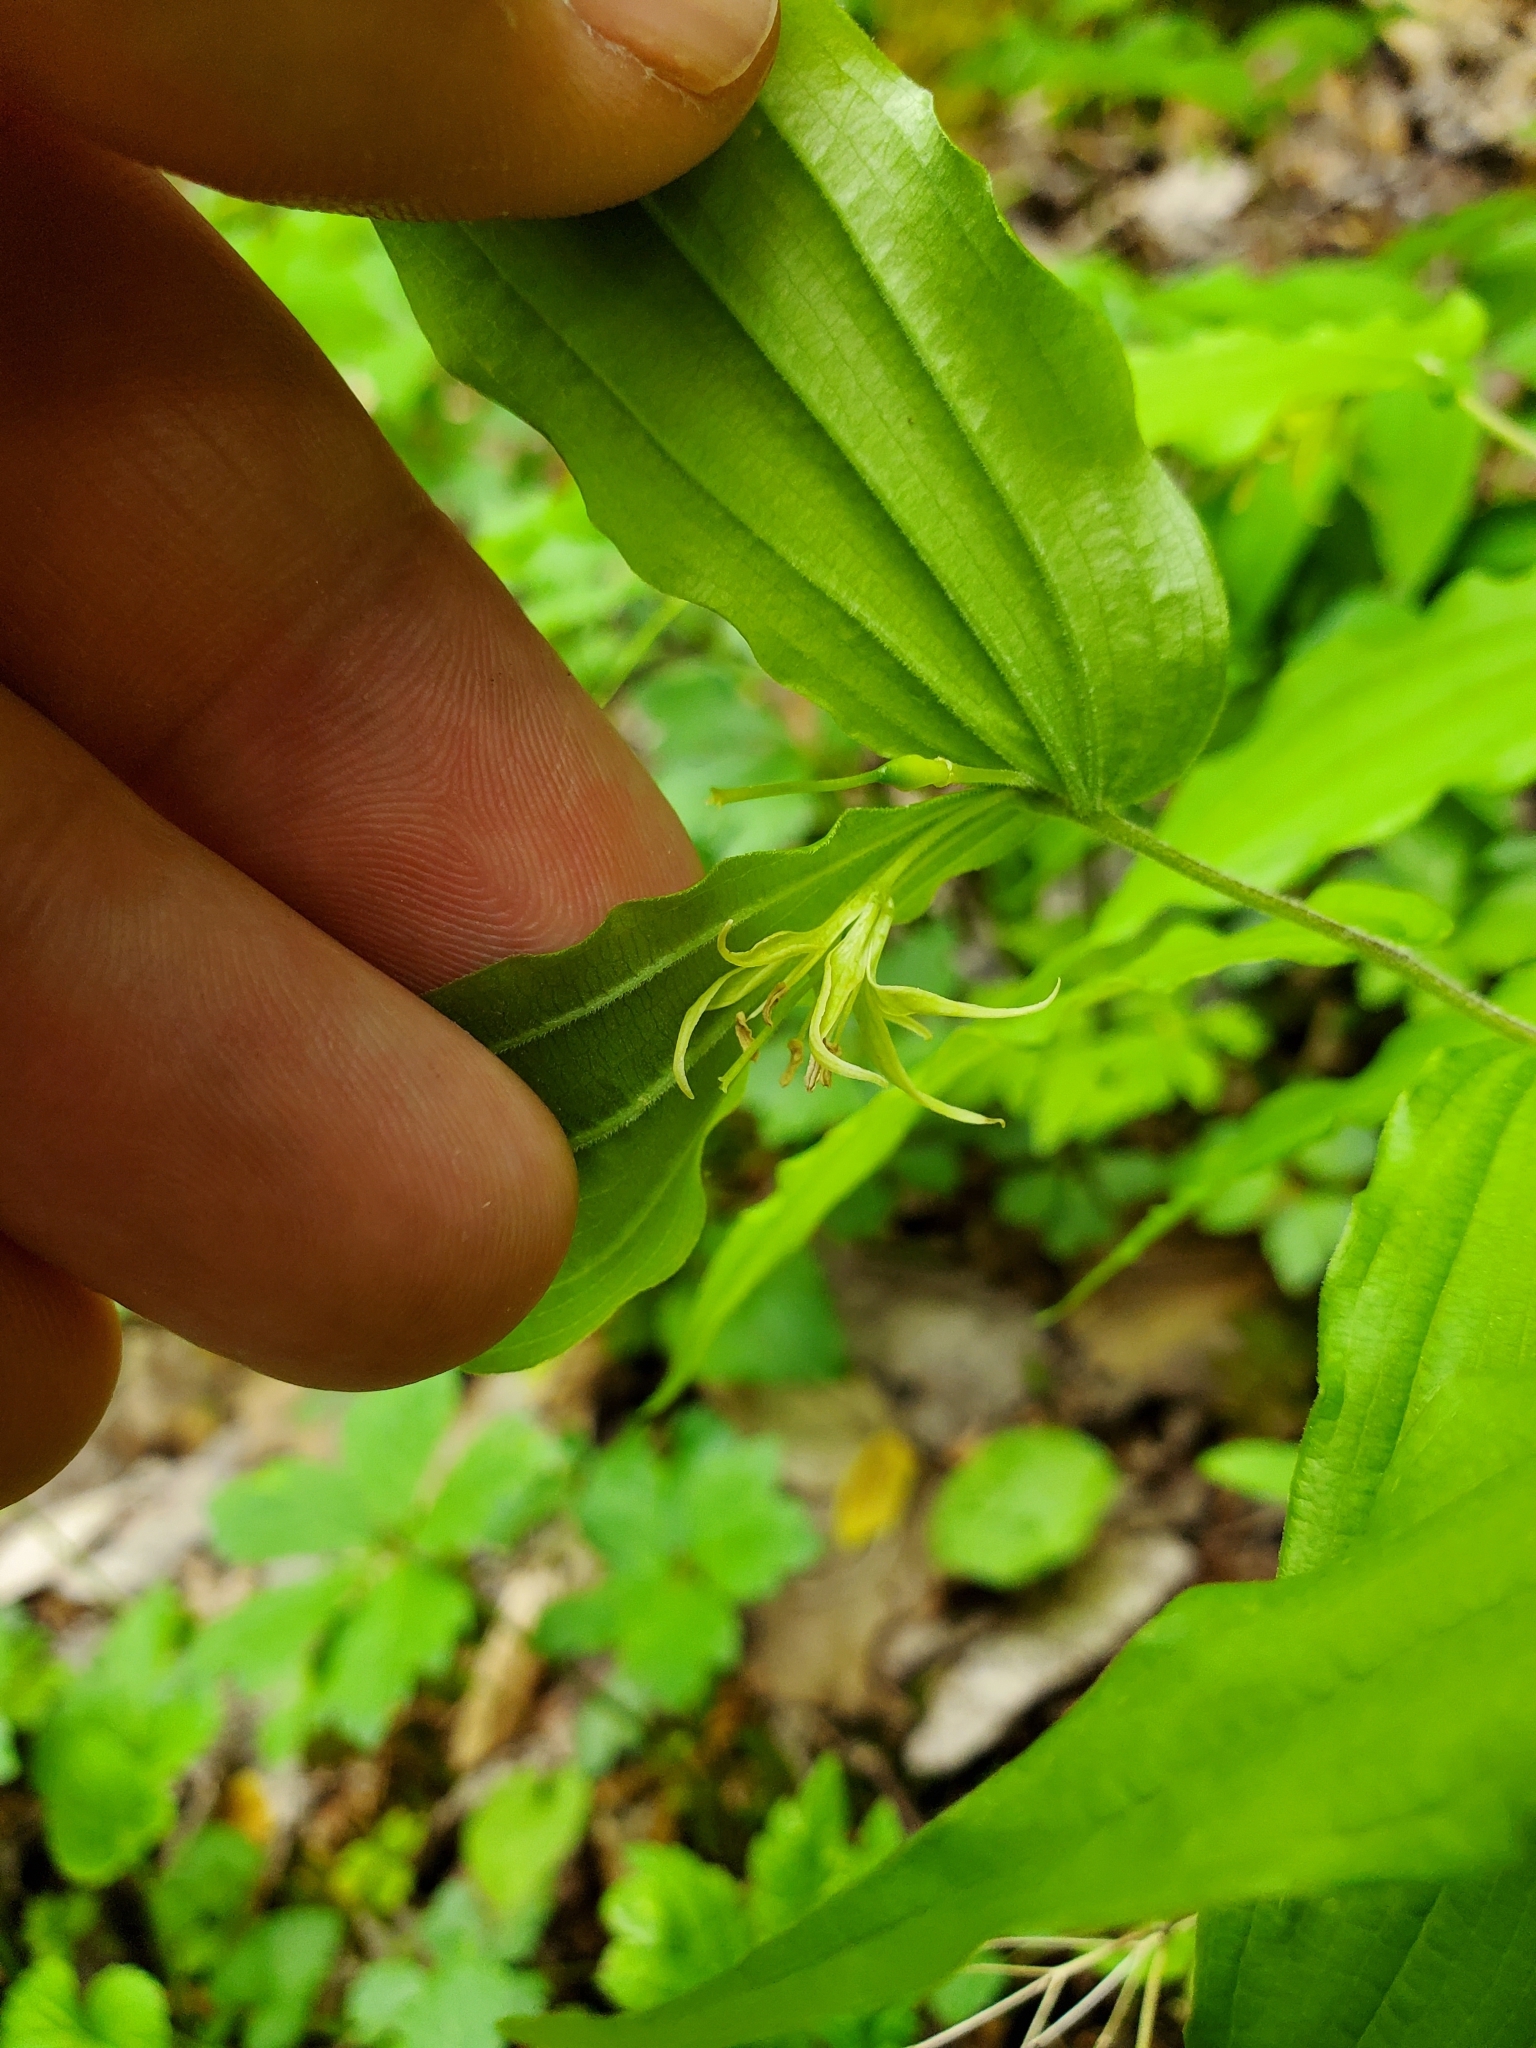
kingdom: Plantae
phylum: Tracheophyta
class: Liliopsida
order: Liliales
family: Liliaceae
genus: Prosartes
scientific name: Prosartes lanuginosa
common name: Hairy mandarin
